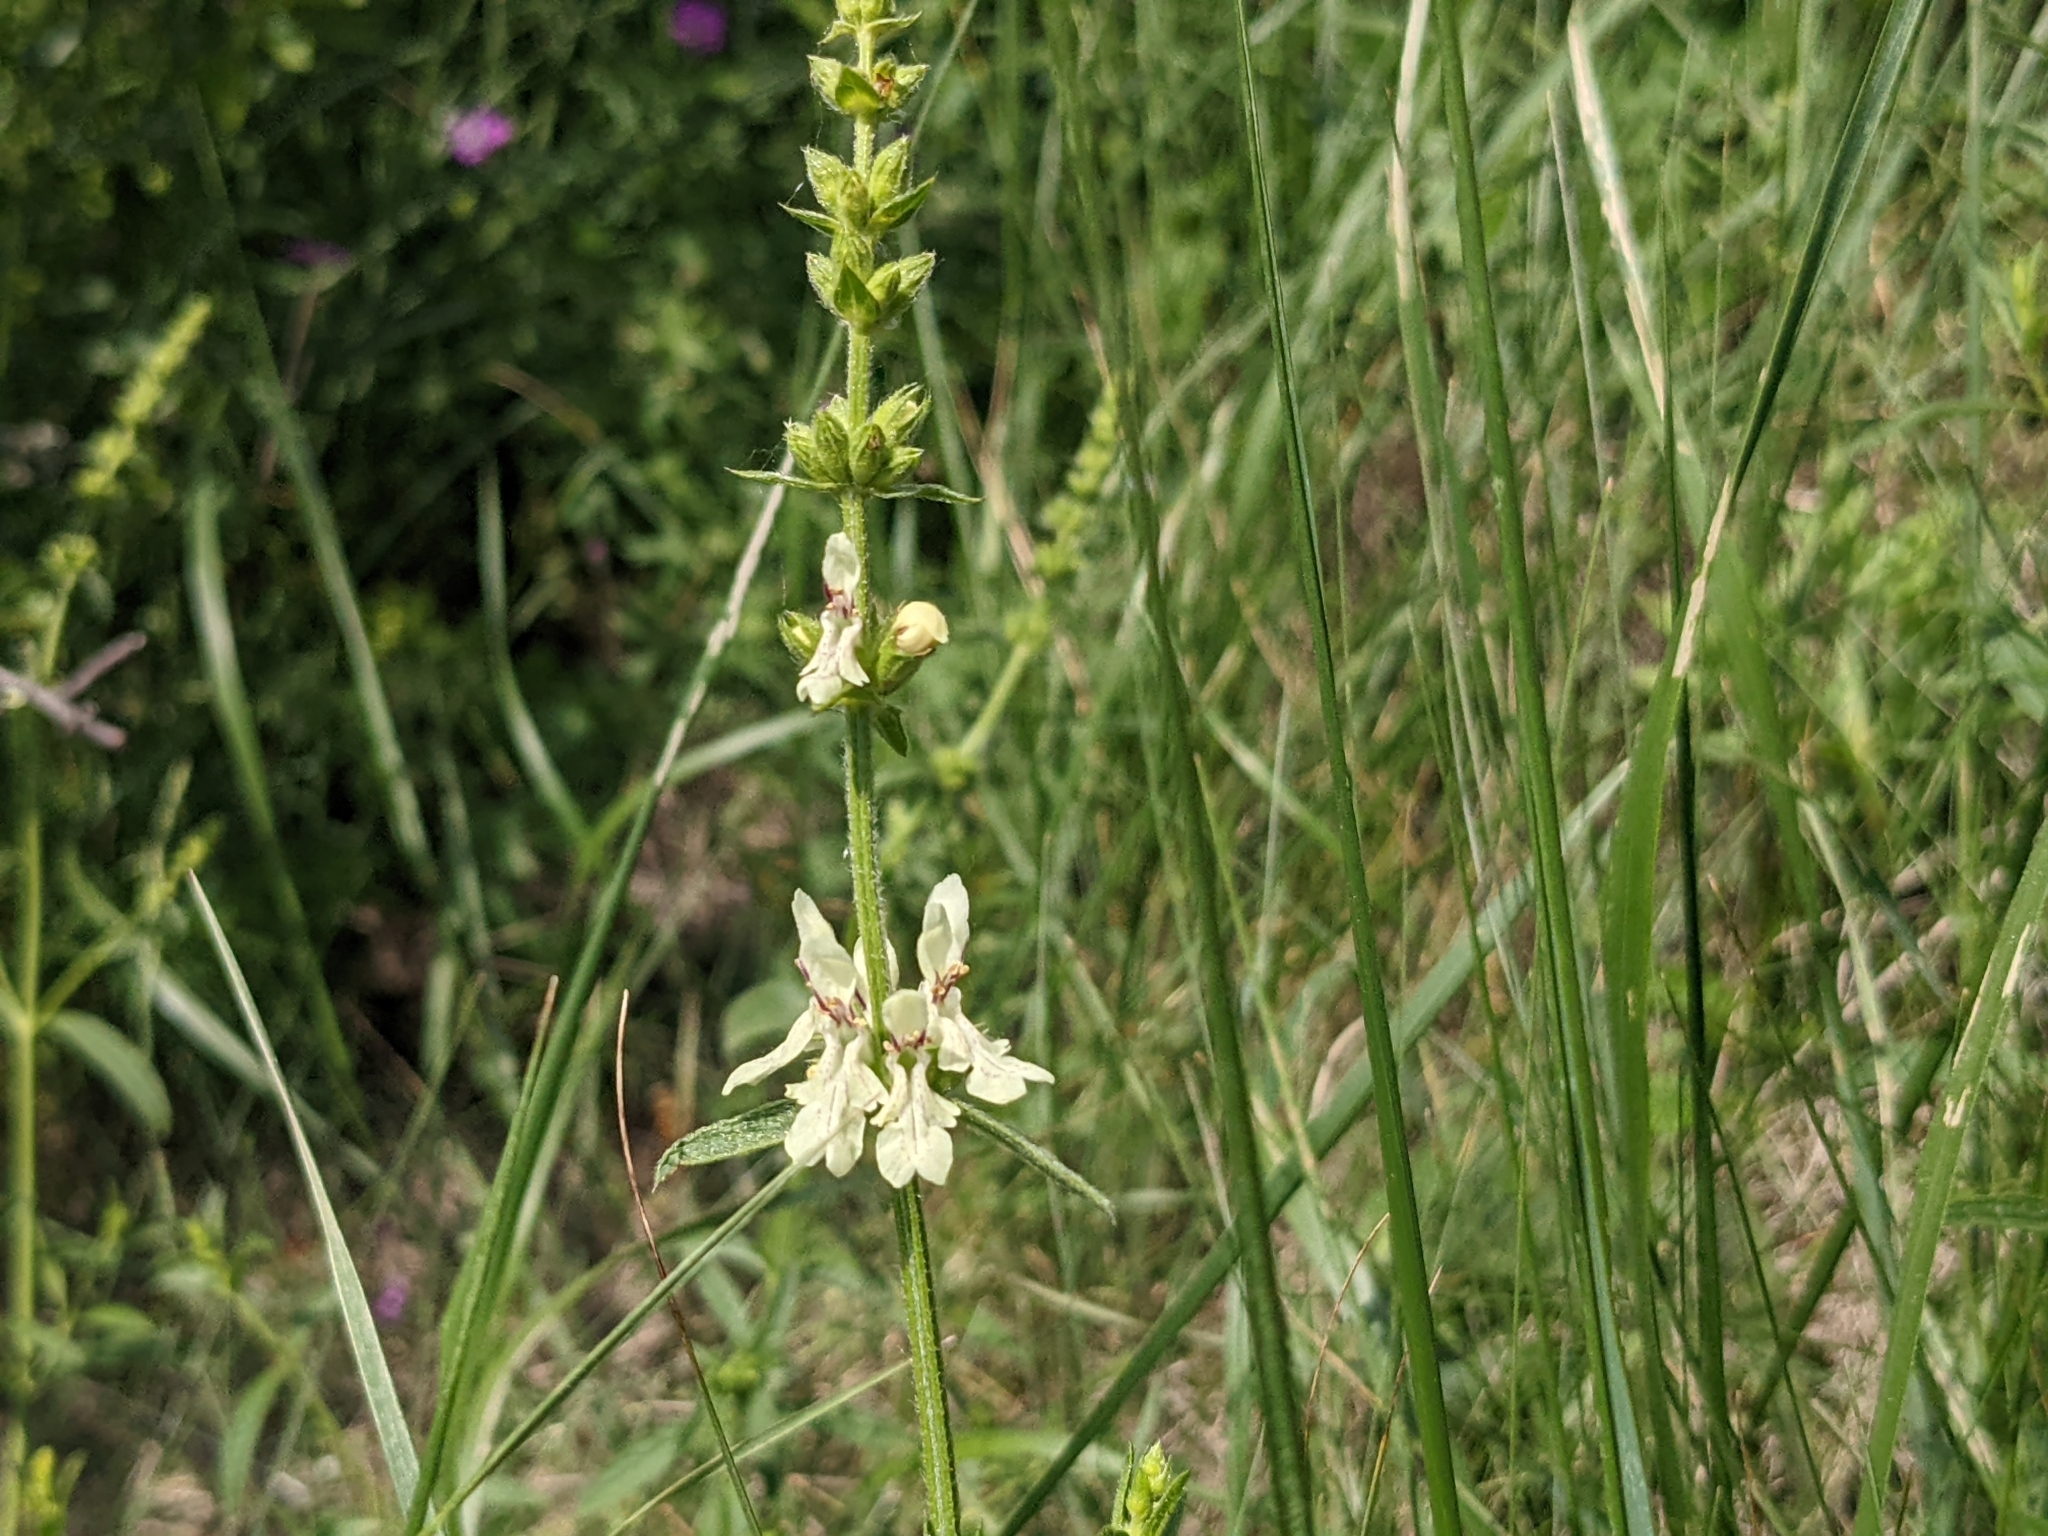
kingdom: Plantae
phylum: Tracheophyta
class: Magnoliopsida
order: Lamiales
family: Lamiaceae
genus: Stachys
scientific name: Stachys recta
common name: Perennial yellow-woundwort
